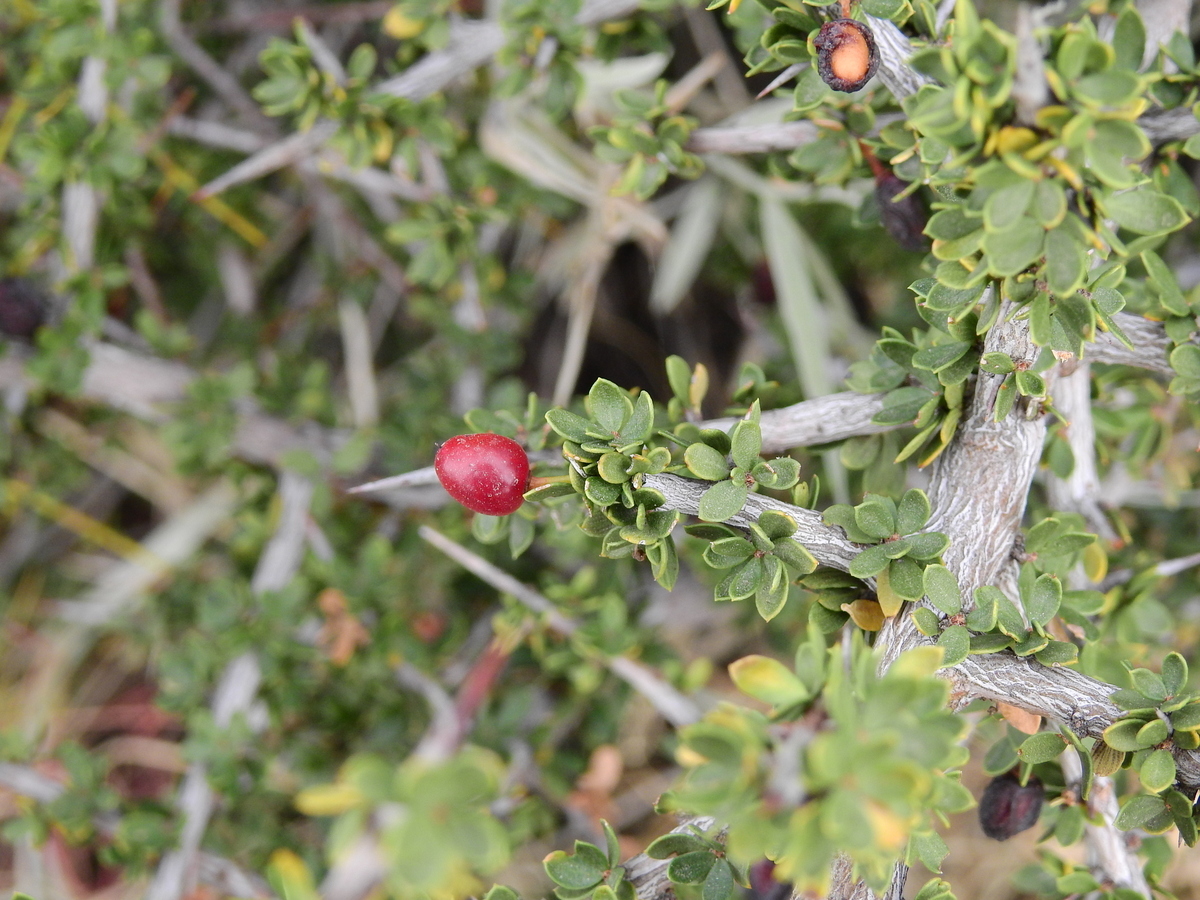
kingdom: Plantae
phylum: Tracheophyta
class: Magnoliopsida
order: Rosales
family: Rhamnaceae
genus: Condalia
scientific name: Condalia microphylla
